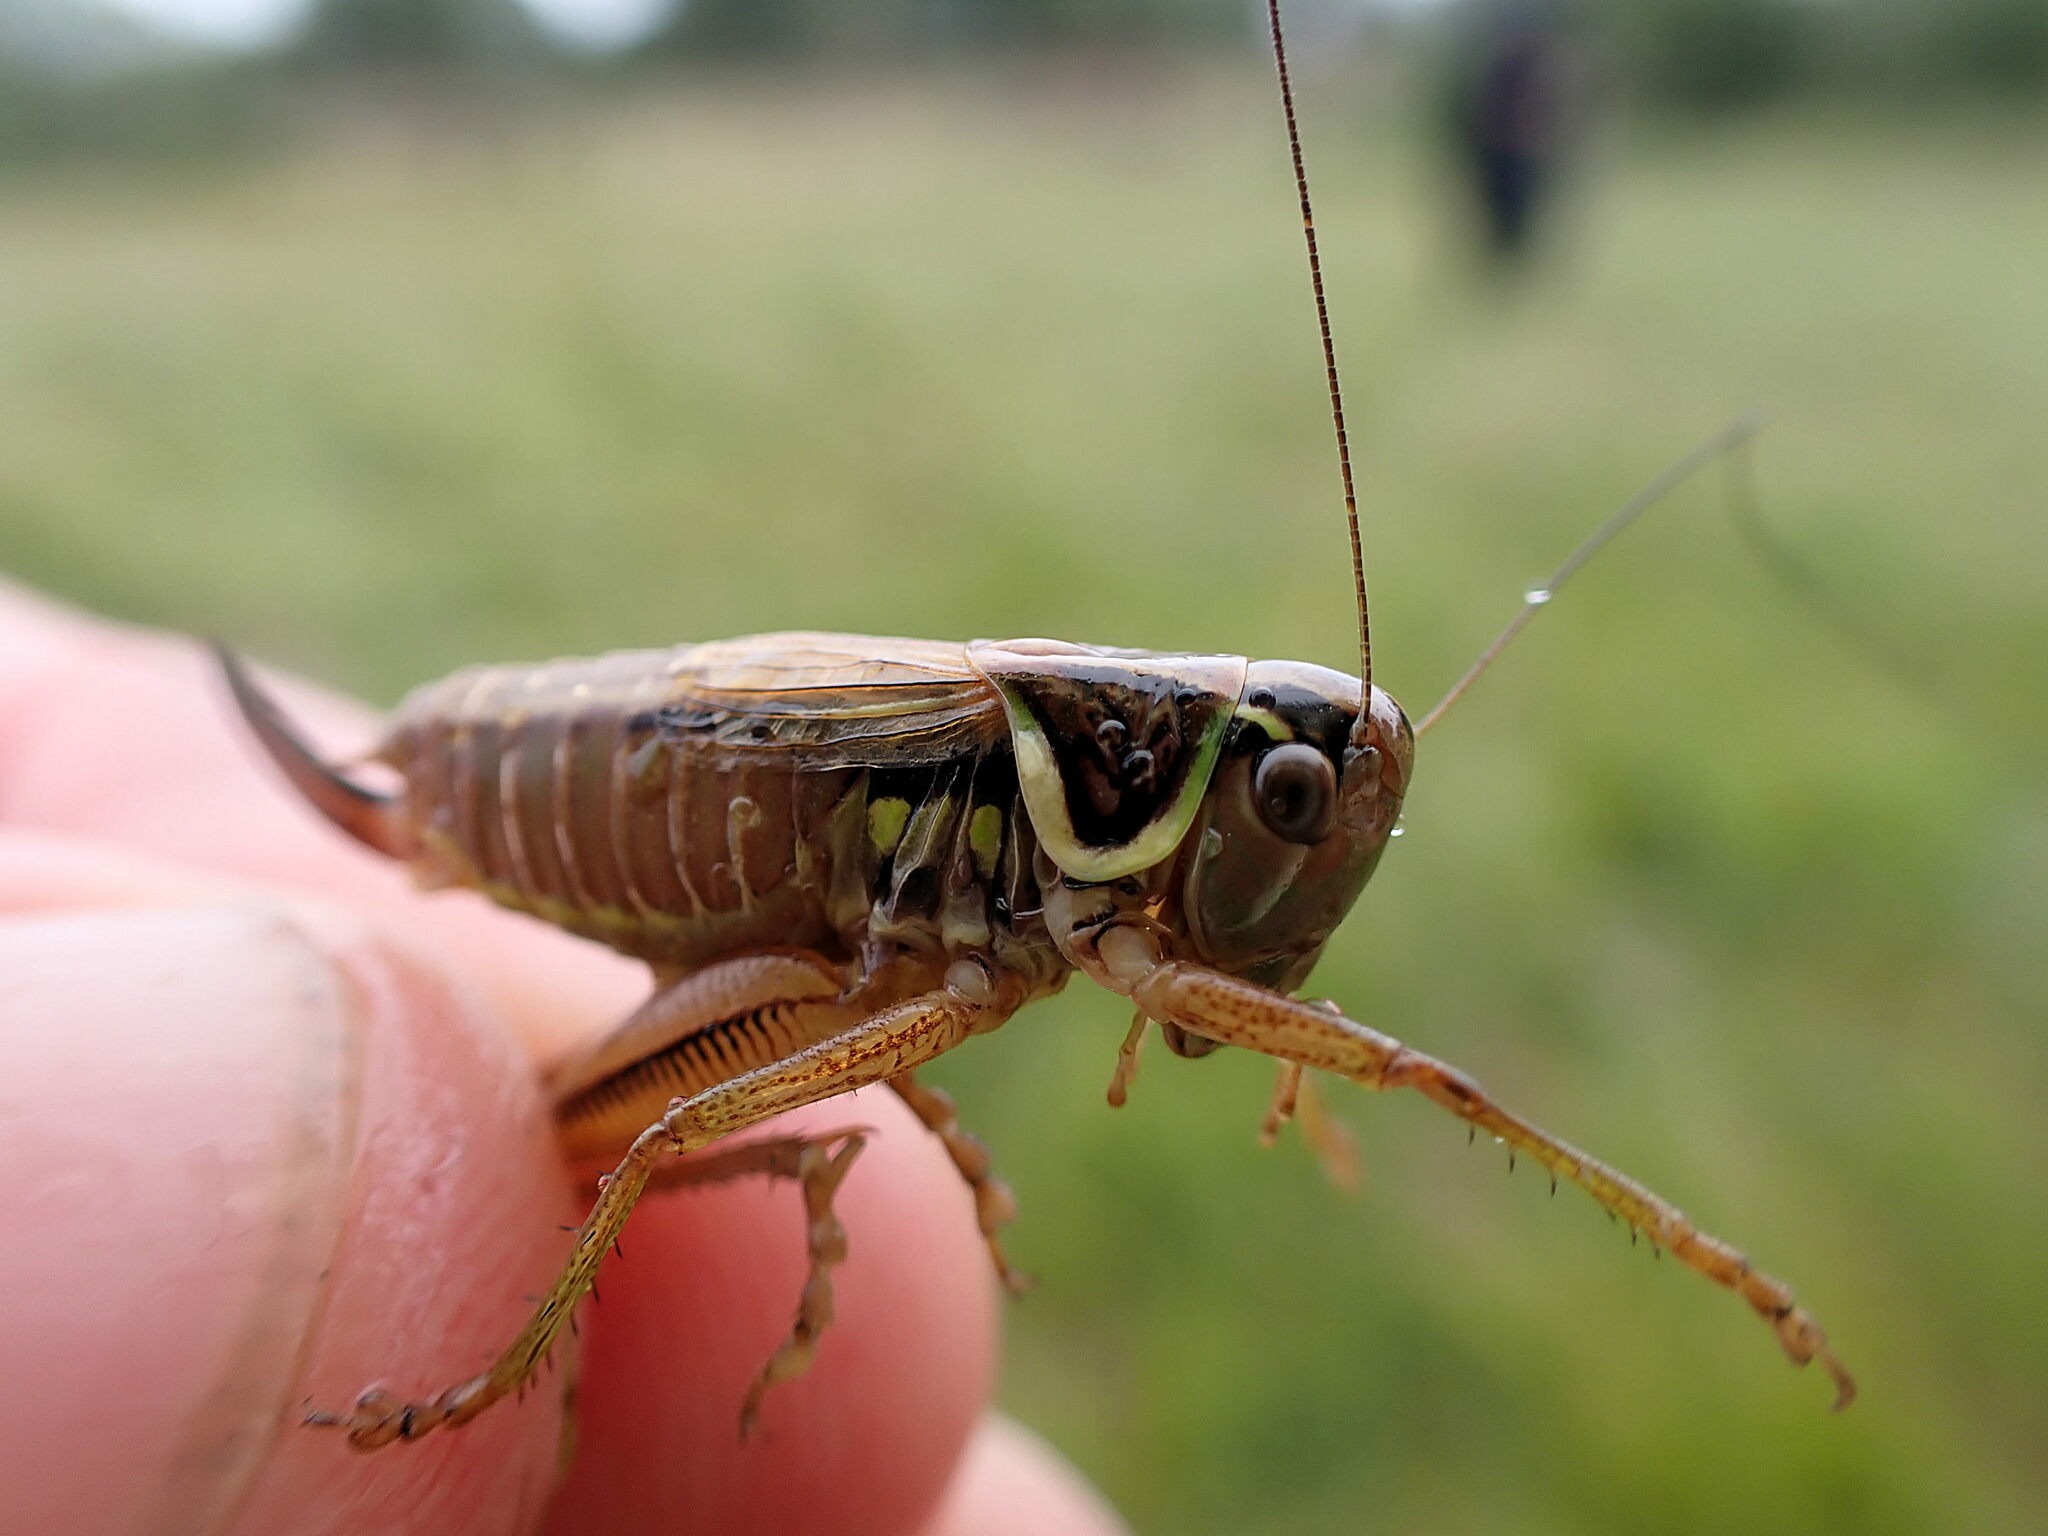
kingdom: Animalia
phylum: Arthropoda
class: Insecta
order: Orthoptera
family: Tettigoniidae
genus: Roeseliana
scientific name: Roeseliana roeselii
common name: Roesel's bush cricket
